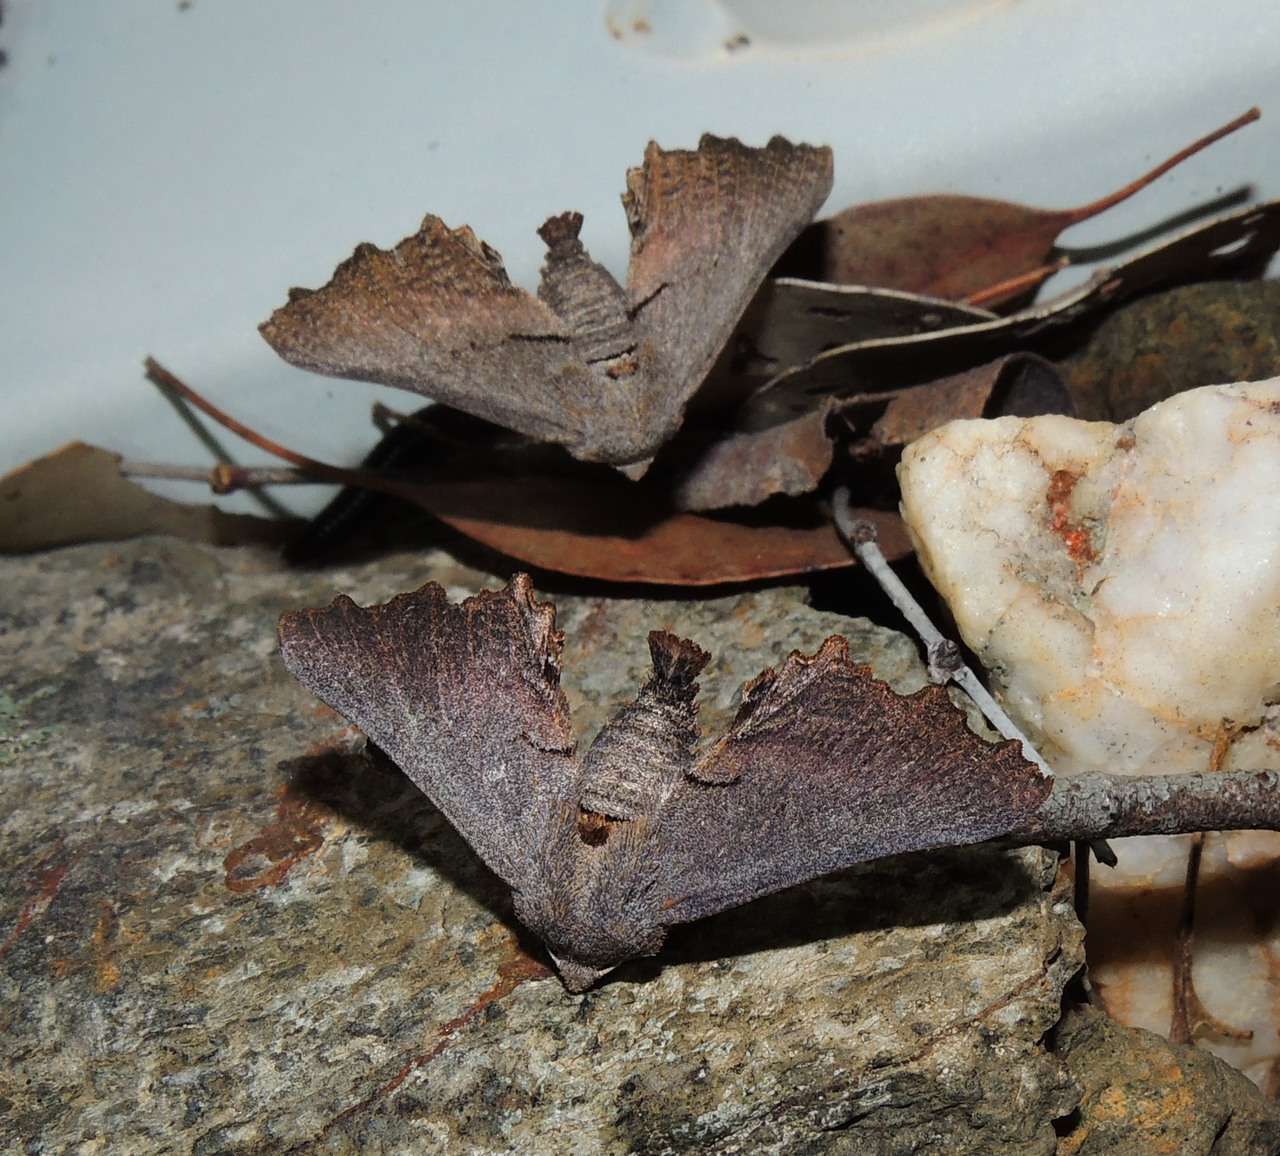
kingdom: Animalia
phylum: Arthropoda
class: Insecta
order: Lepidoptera
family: Geometridae
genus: Amphiclasta
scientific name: Amphiclasta lygaea
